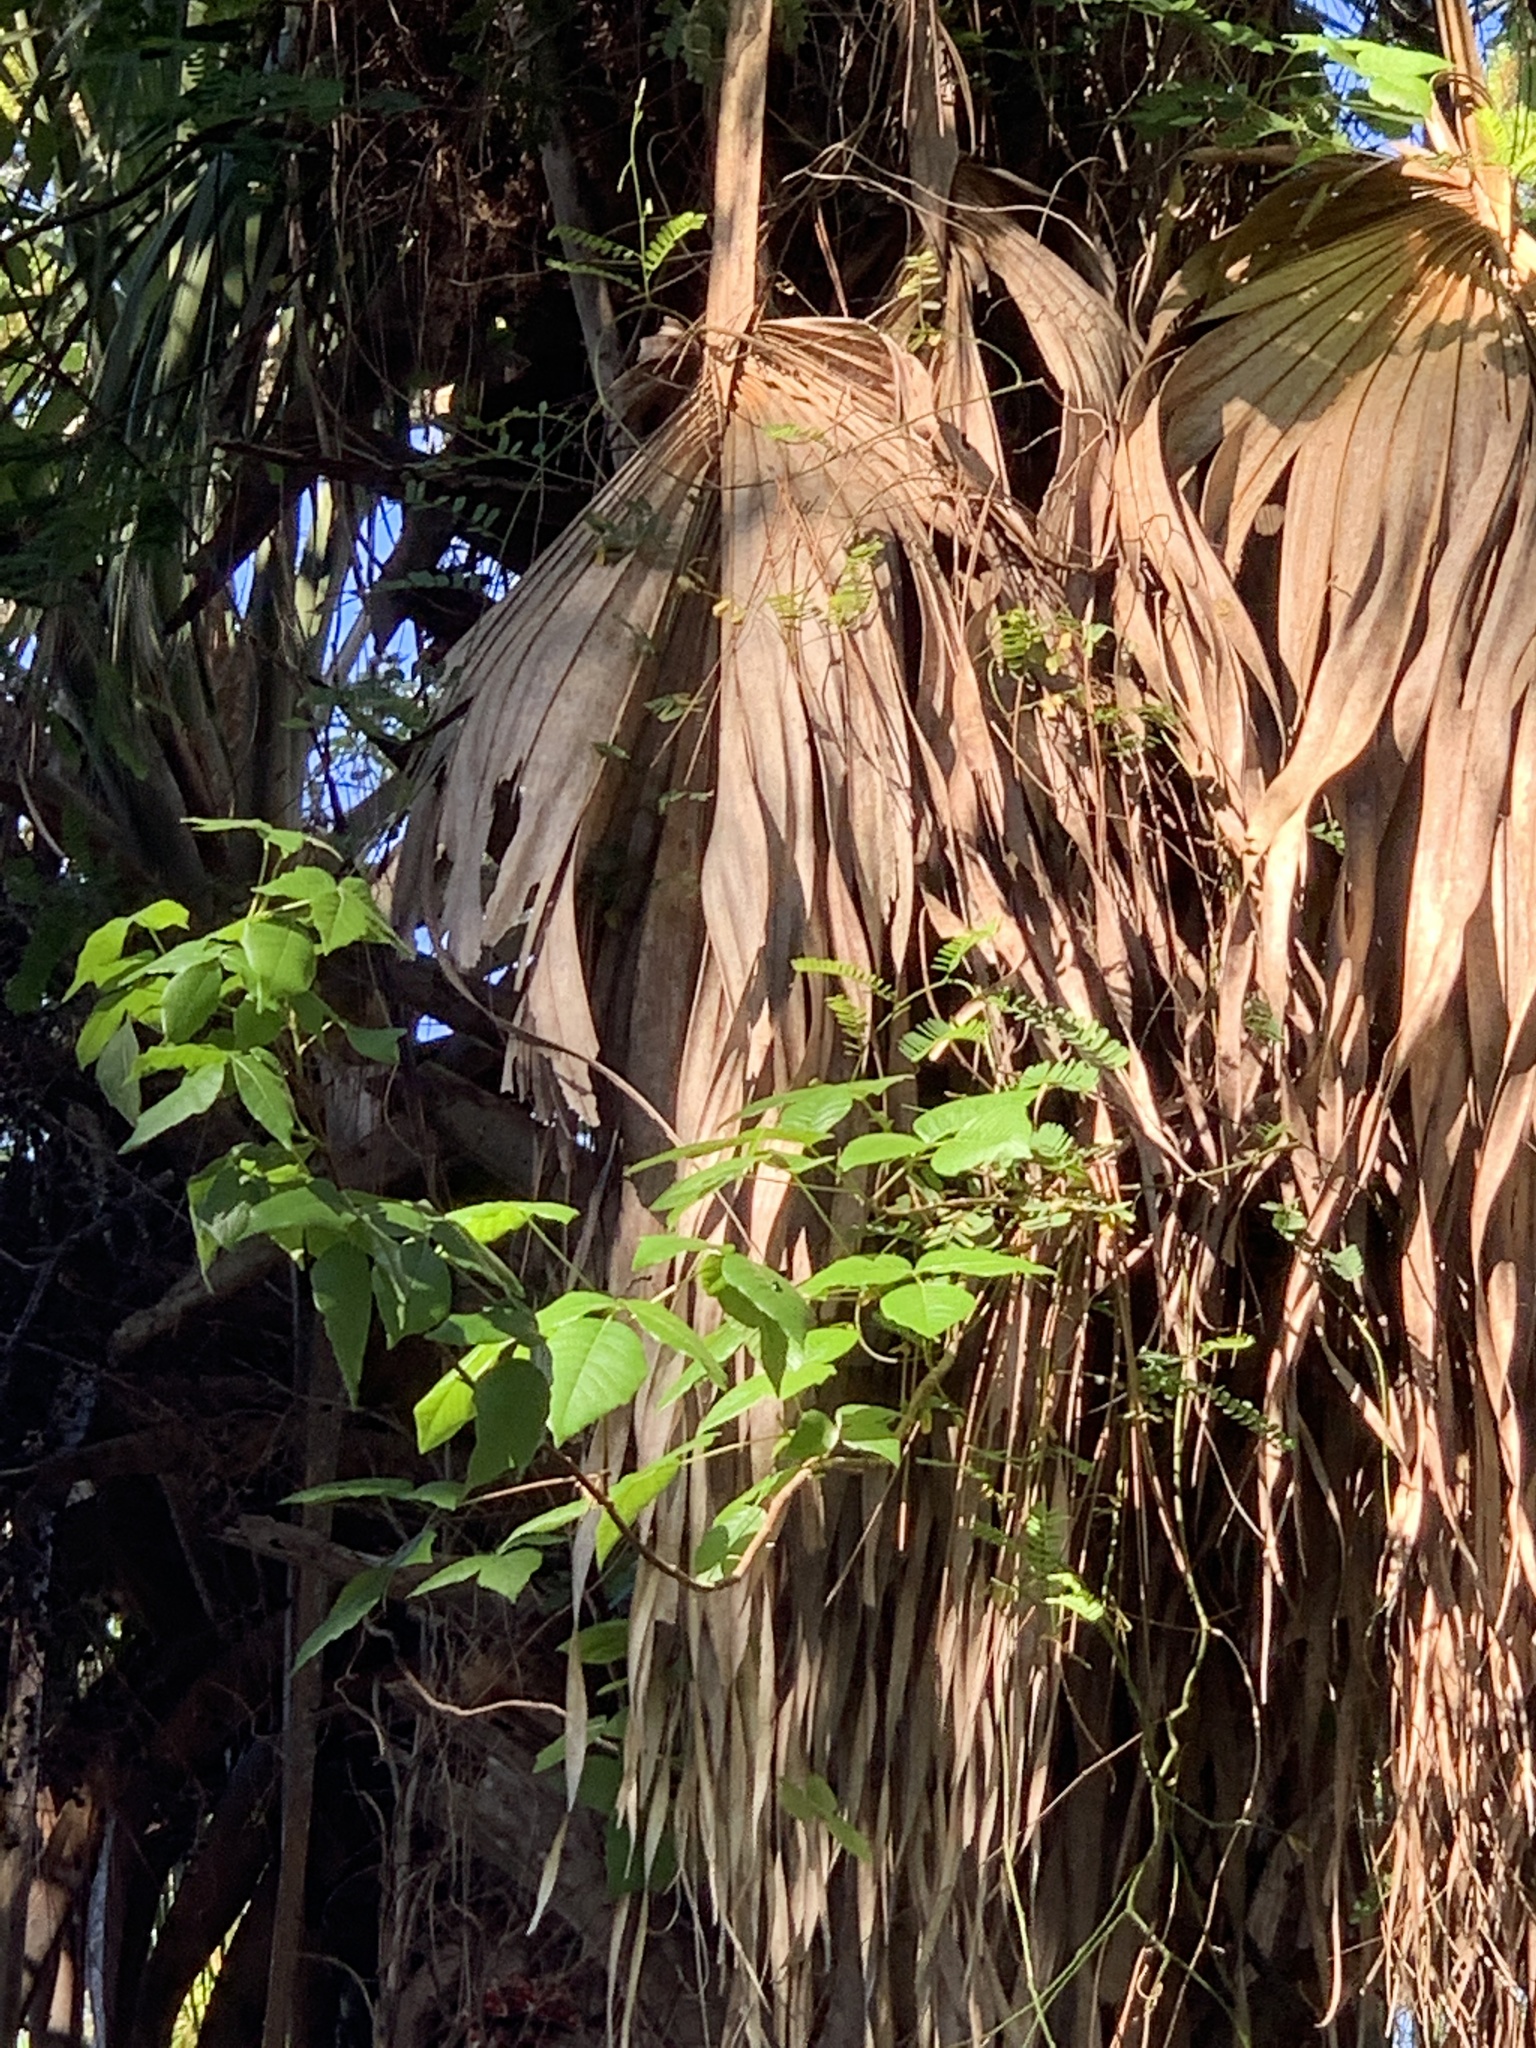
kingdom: Plantae
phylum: Tracheophyta
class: Magnoliopsida
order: Sapindales
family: Anacardiaceae
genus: Toxicodendron
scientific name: Toxicodendron radicans
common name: Poison ivy
